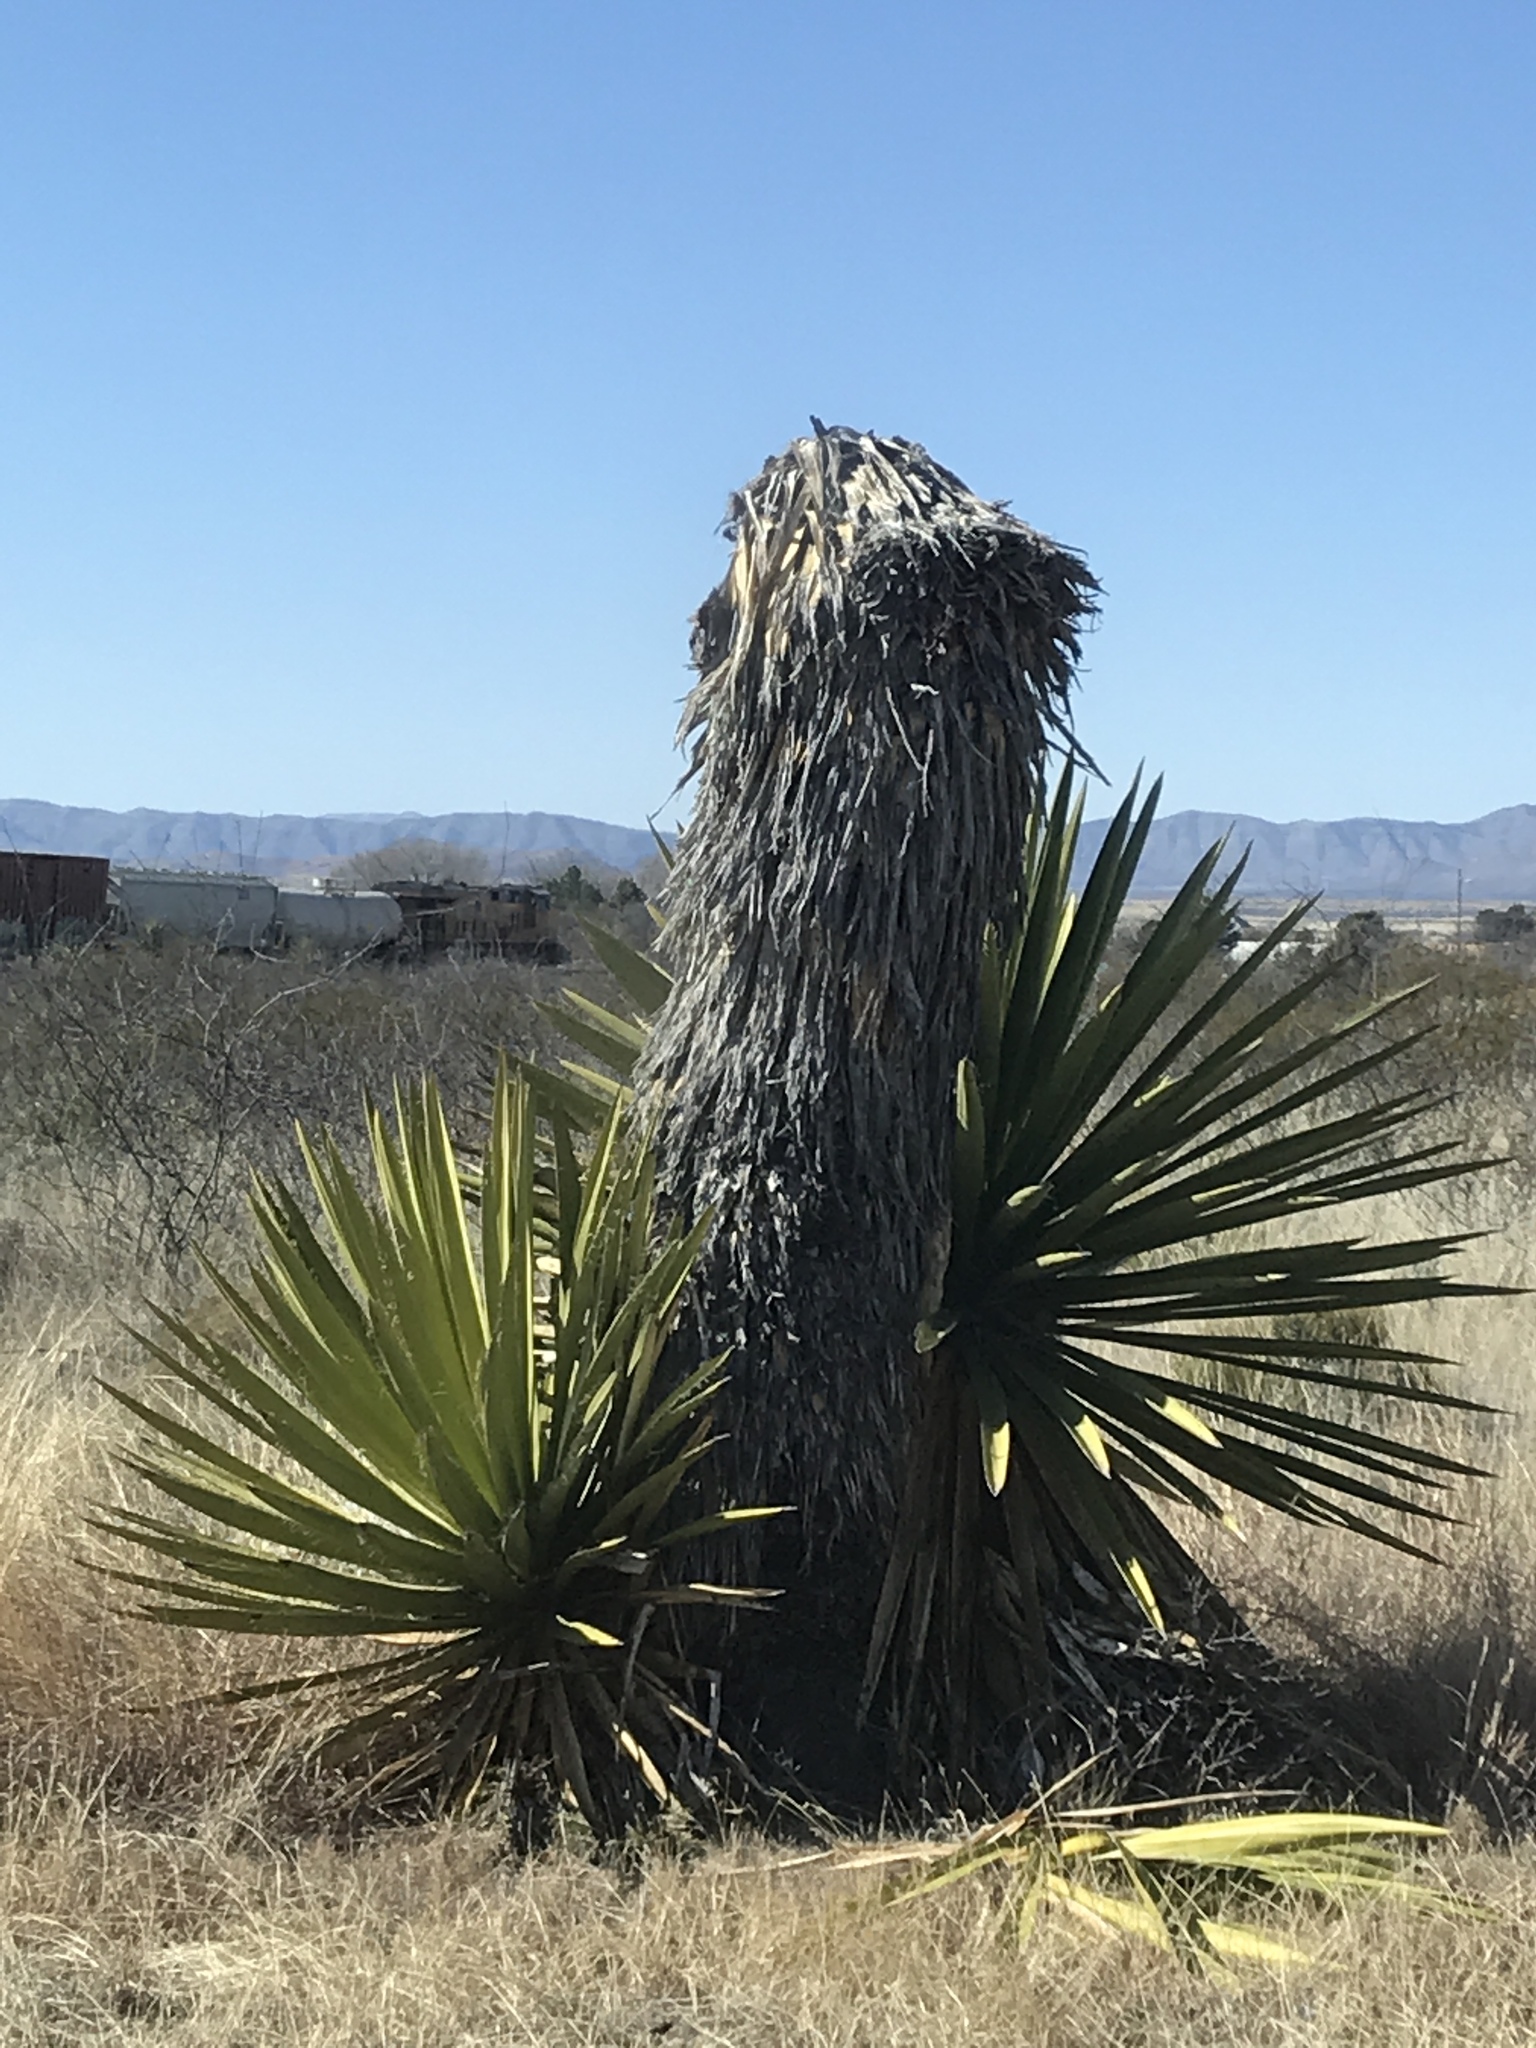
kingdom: Plantae
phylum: Tracheophyta
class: Liliopsida
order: Asparagales
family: Asparagaceae
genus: Yucca
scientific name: Yucca faxoniana
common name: Spanish dagger
